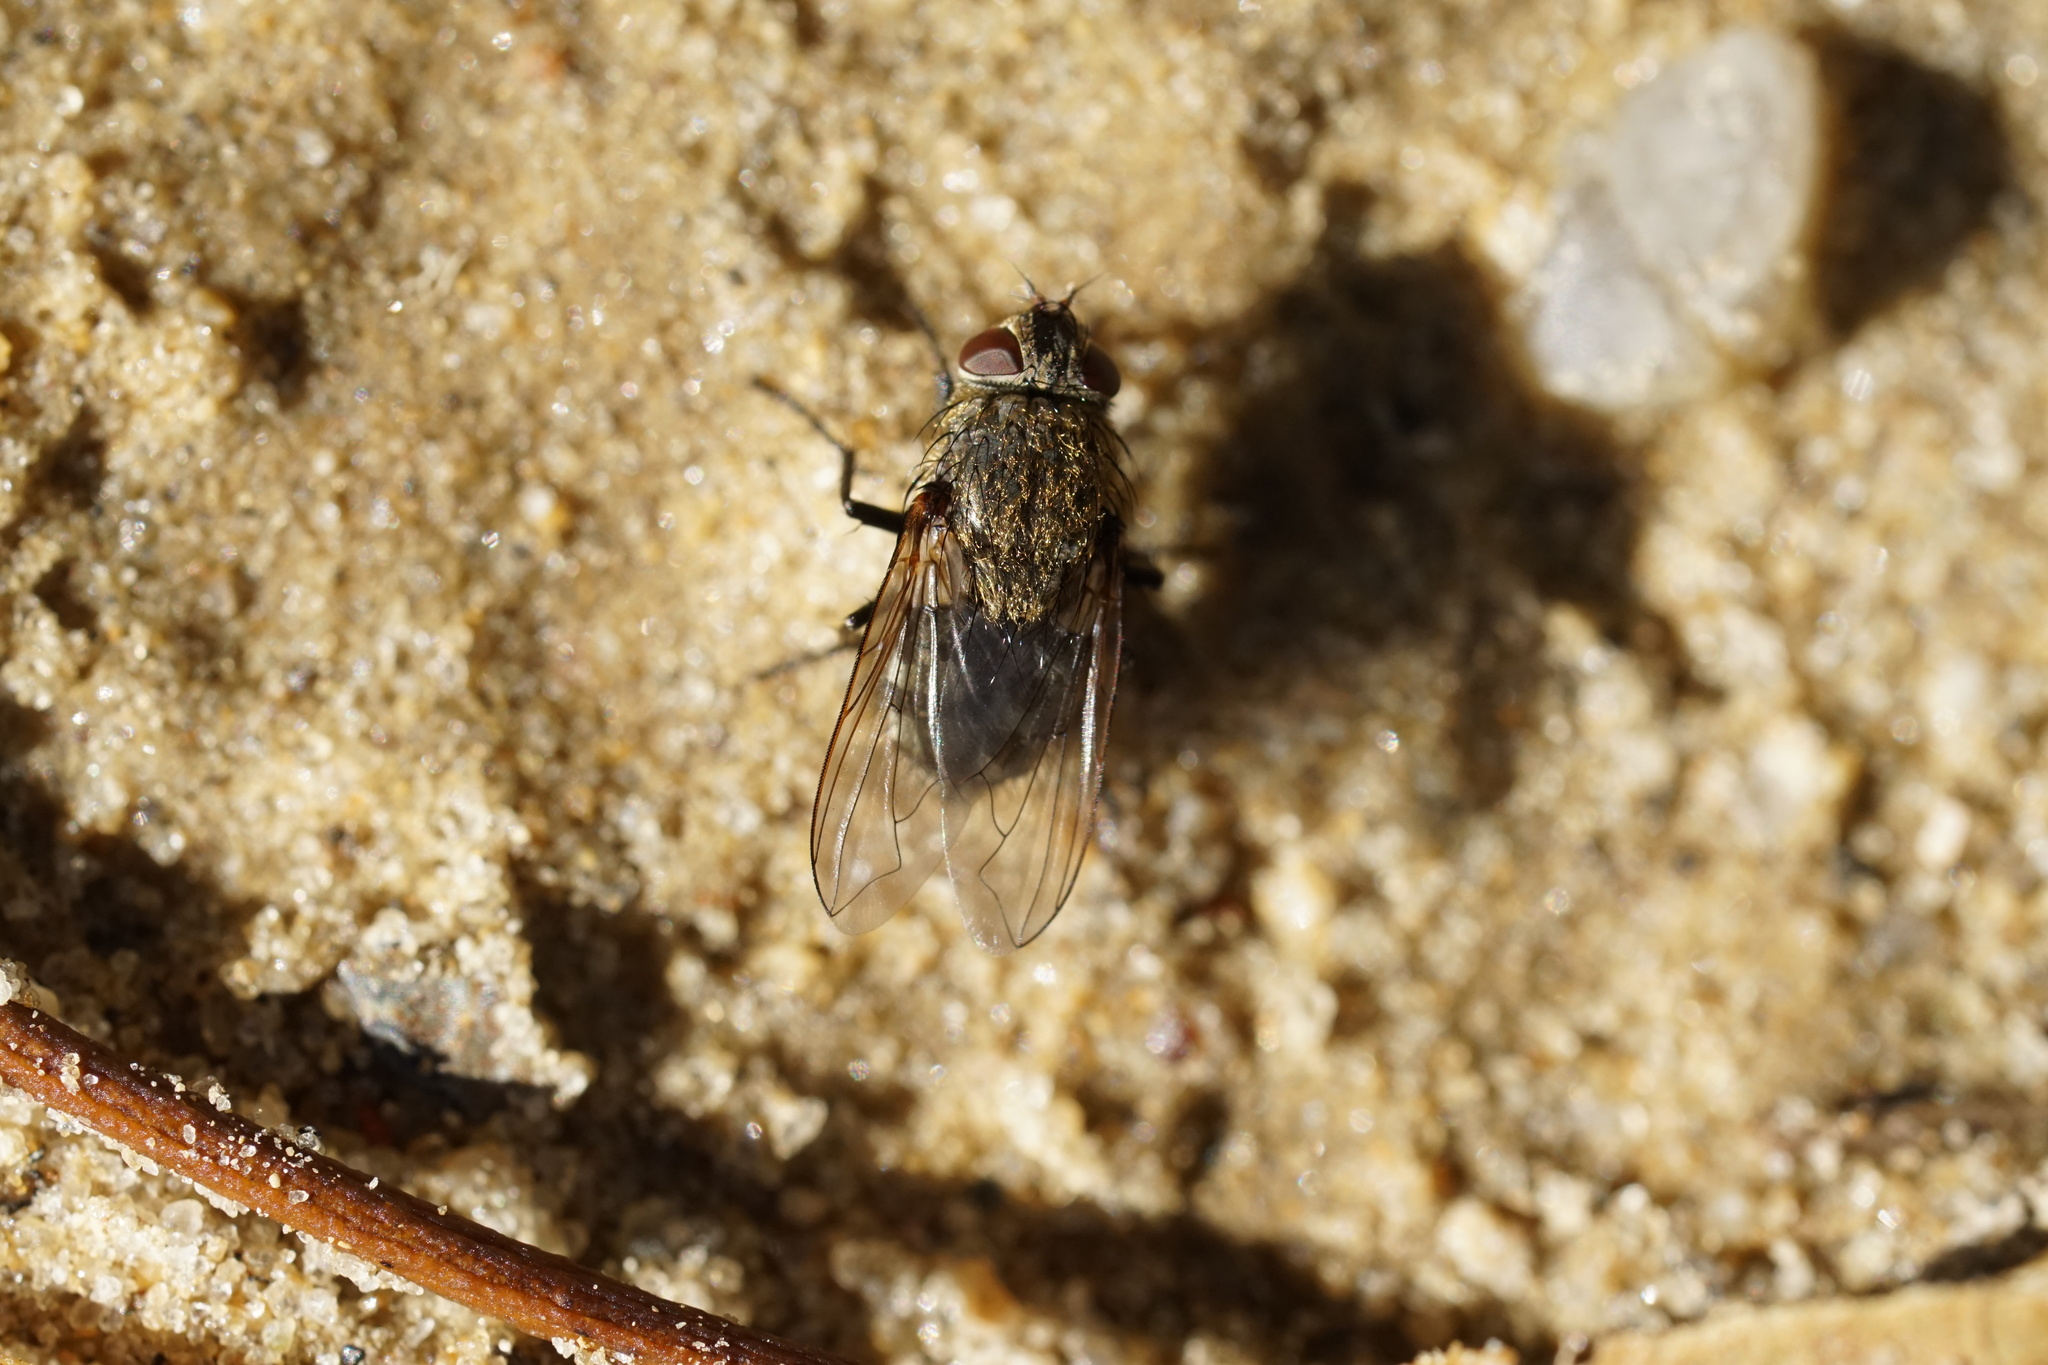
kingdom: Animalia
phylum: Arthropoda
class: Insecta
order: Diptera
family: Polleniidae
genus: Pollenia
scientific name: Pollenia
